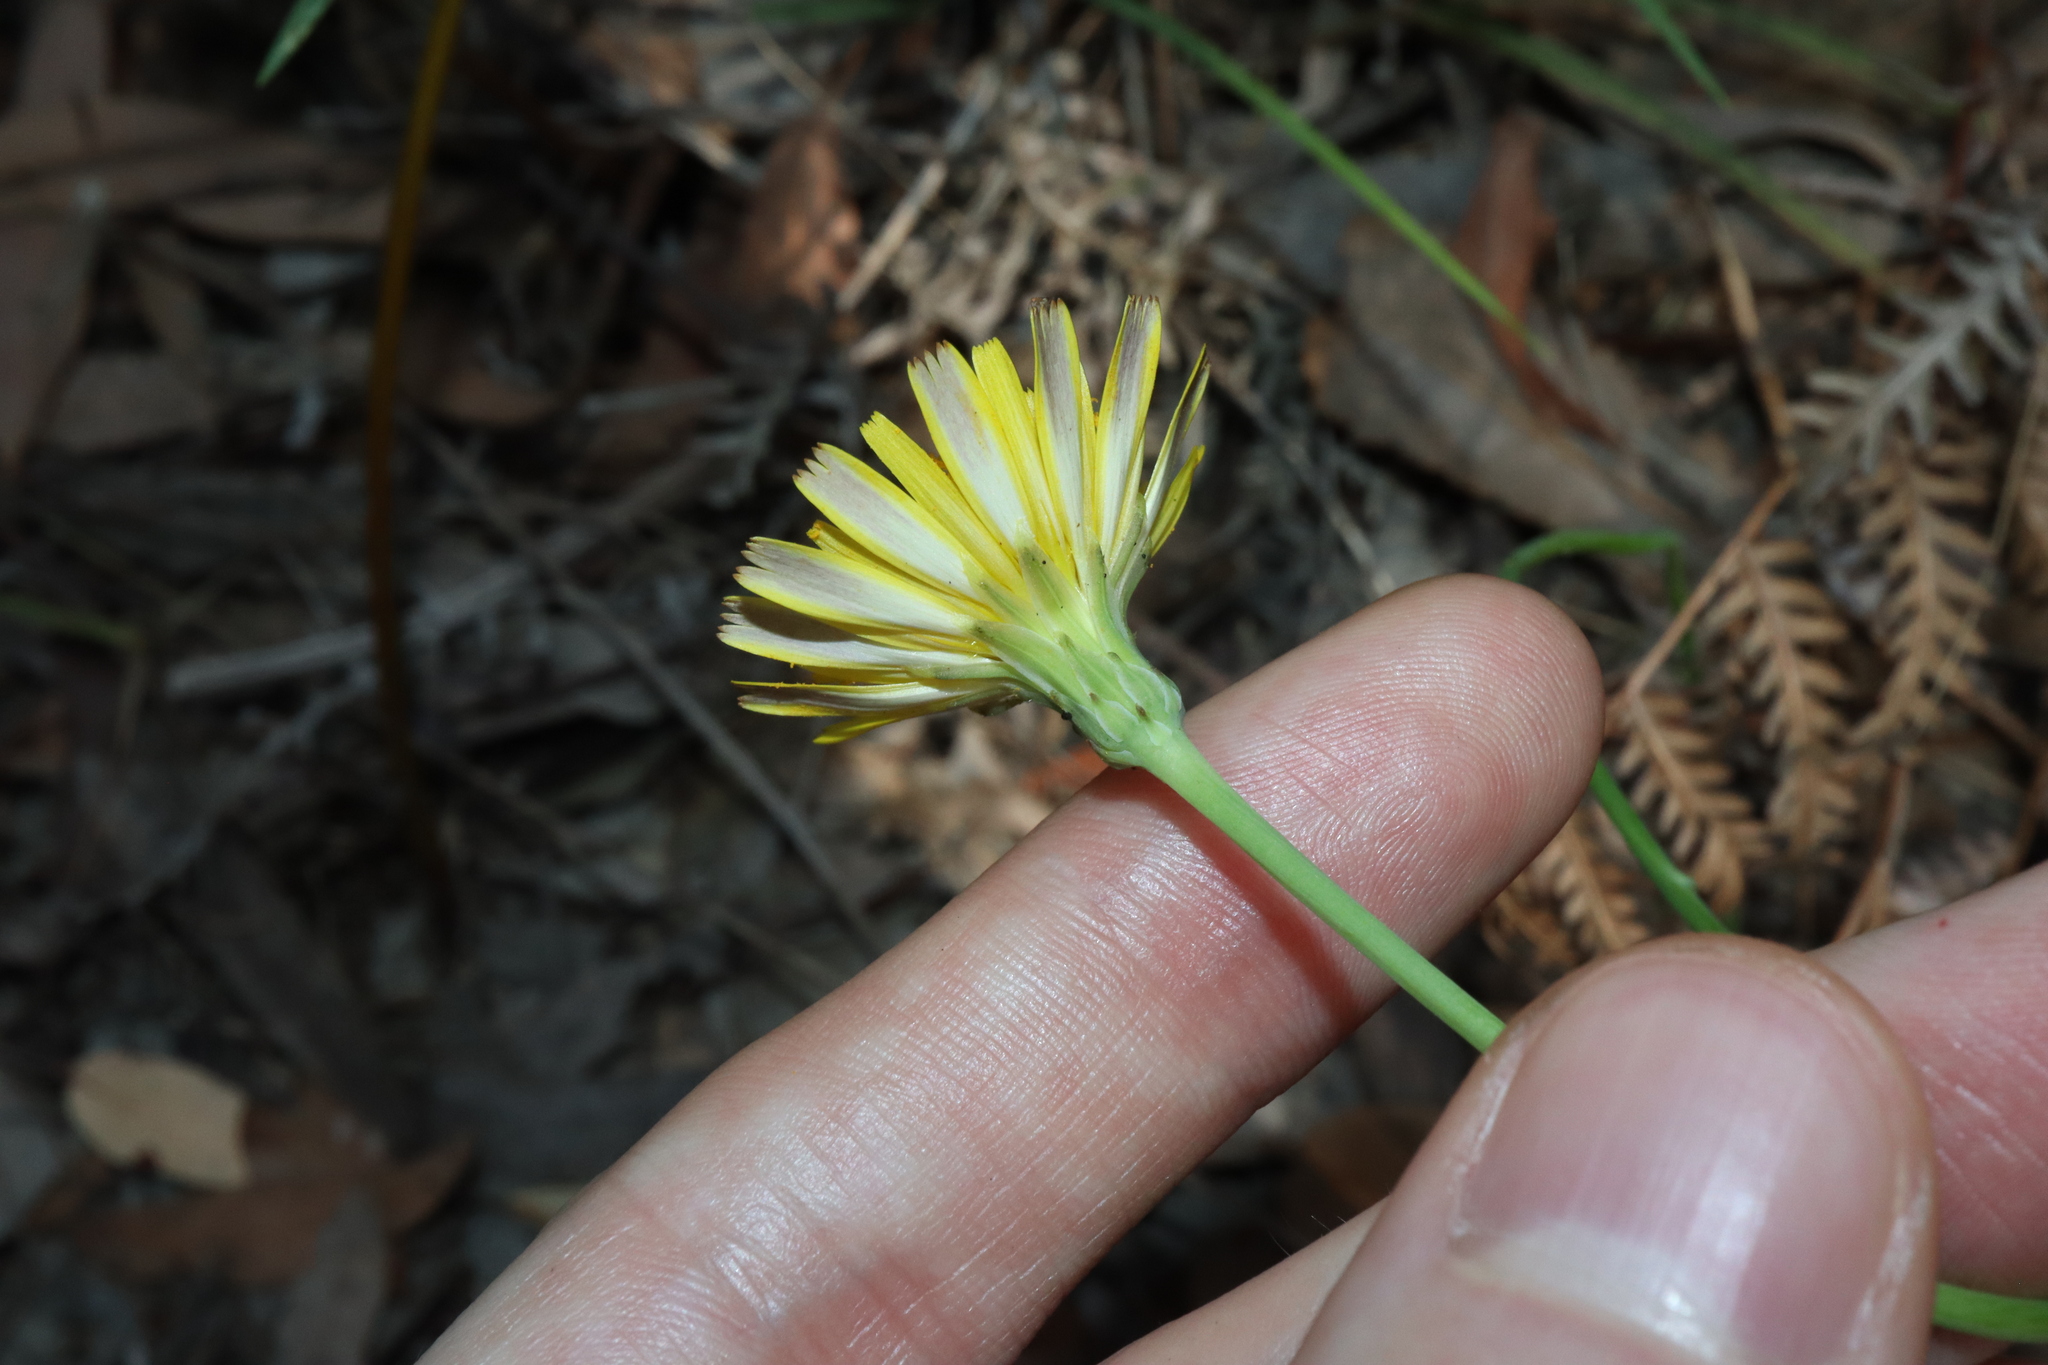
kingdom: Plantae
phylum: Tracheophyta
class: Magnoliopsida
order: Asterales
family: Asteraceae
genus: Hypochaeris
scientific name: Hypochaeris radicata
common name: Flatweed
